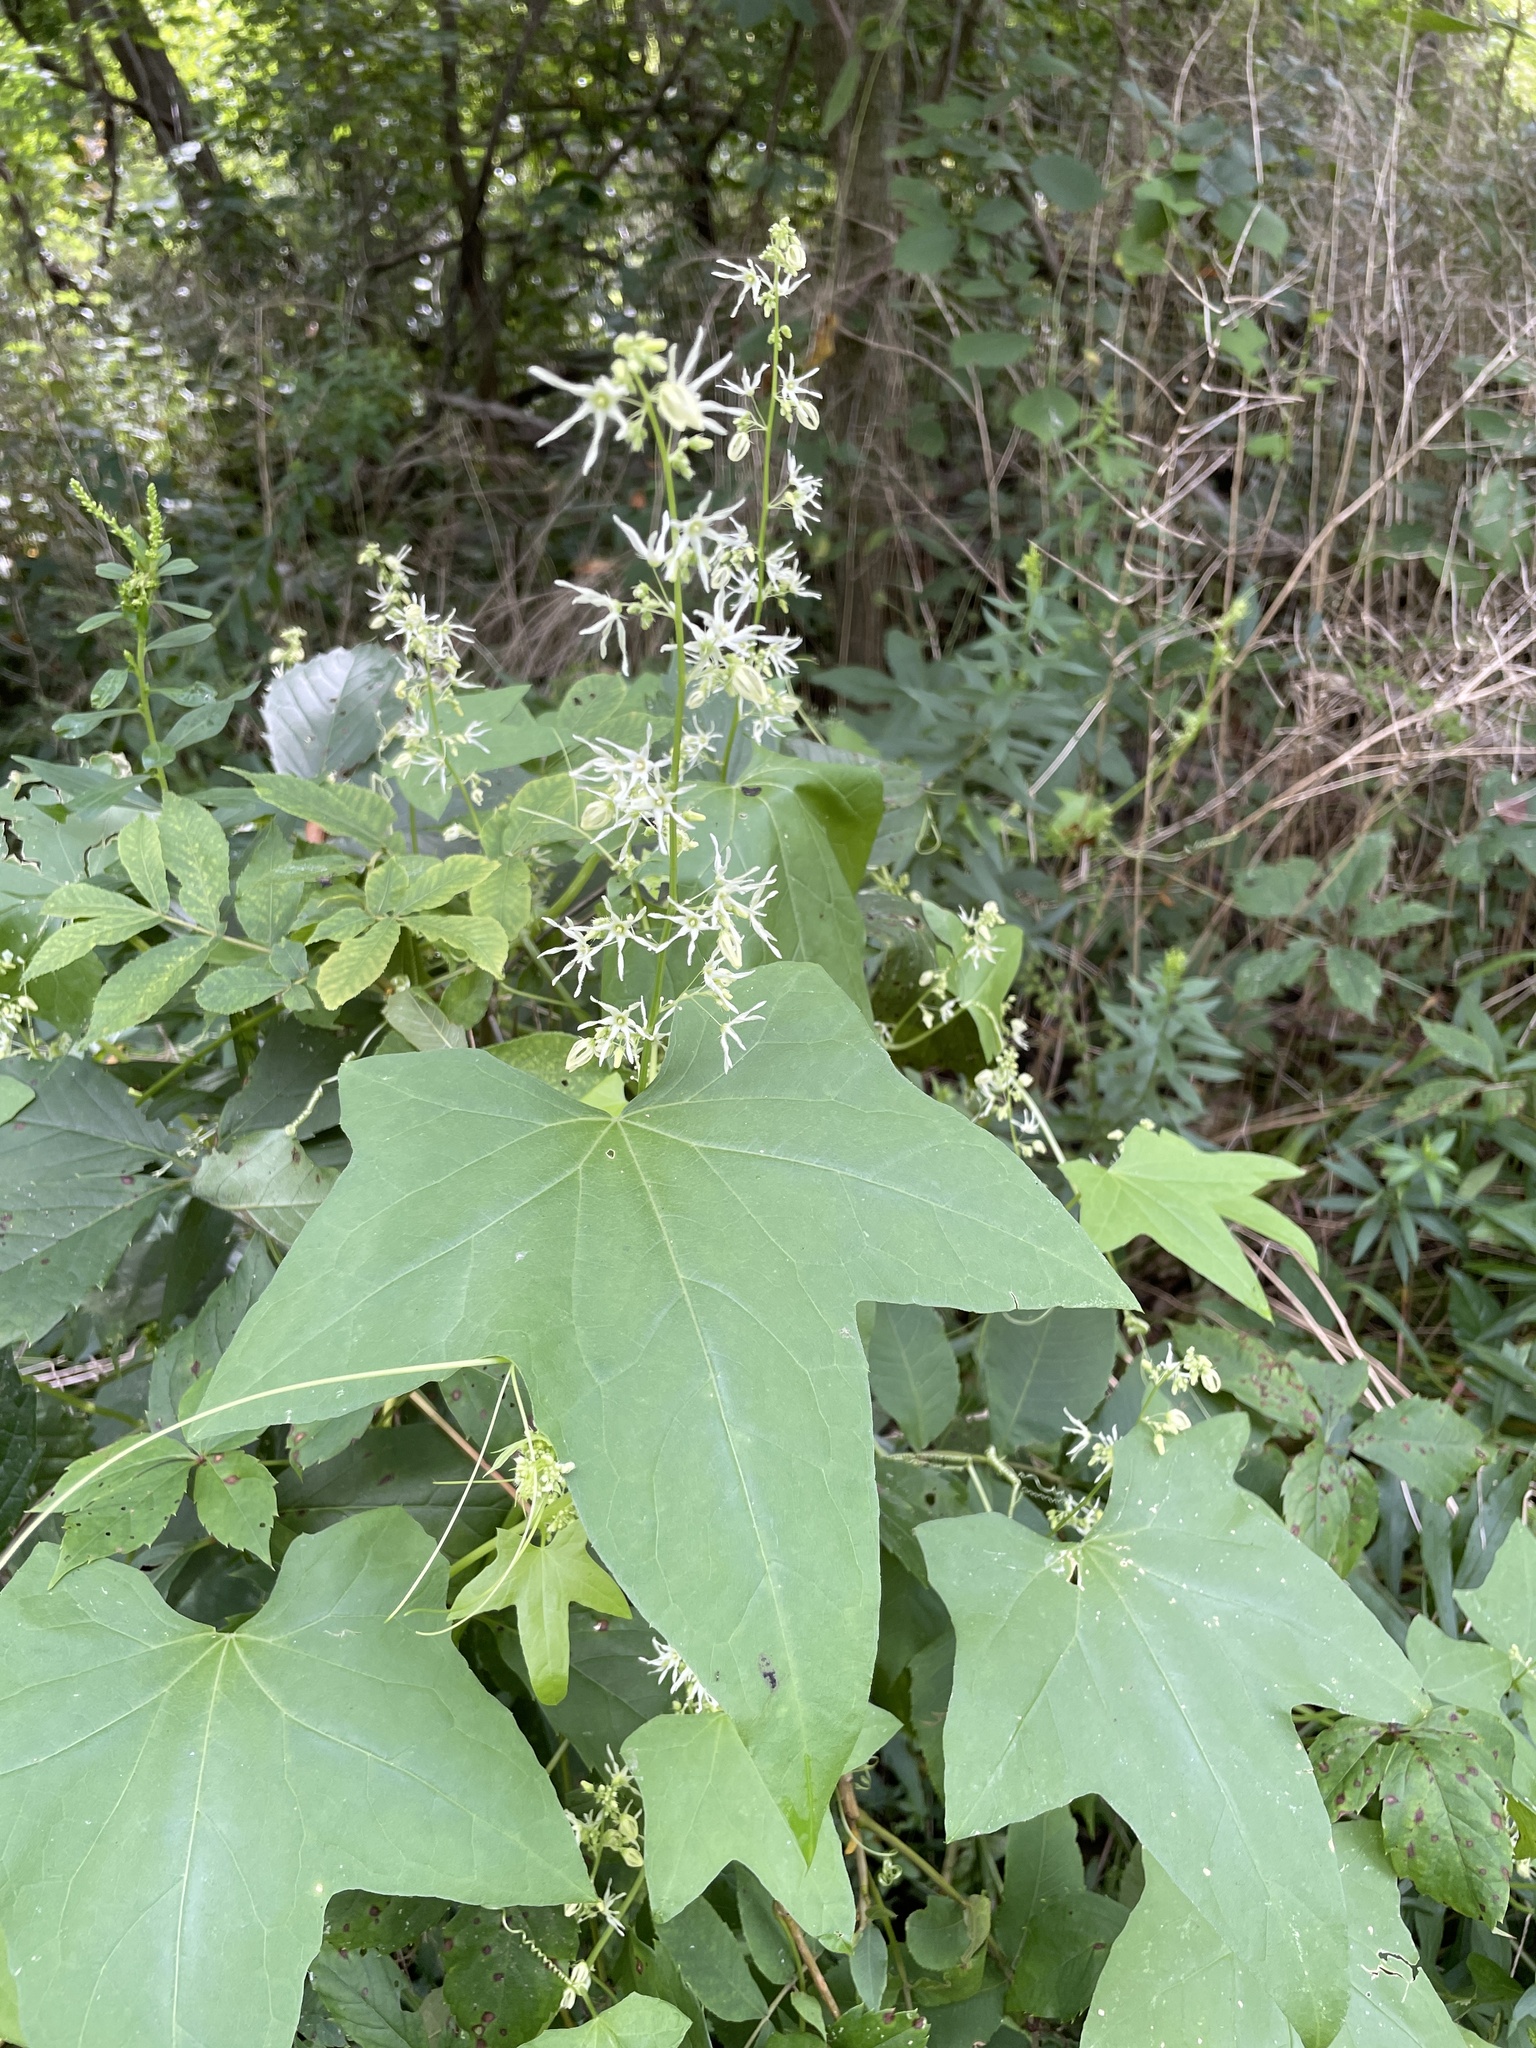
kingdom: Plantae
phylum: Tracheophyta
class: Magnoliopsida
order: Cucurbitales
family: Cucurbitaceae
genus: Echinocystis
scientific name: Echinocystis lobata
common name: Wild cucumber
